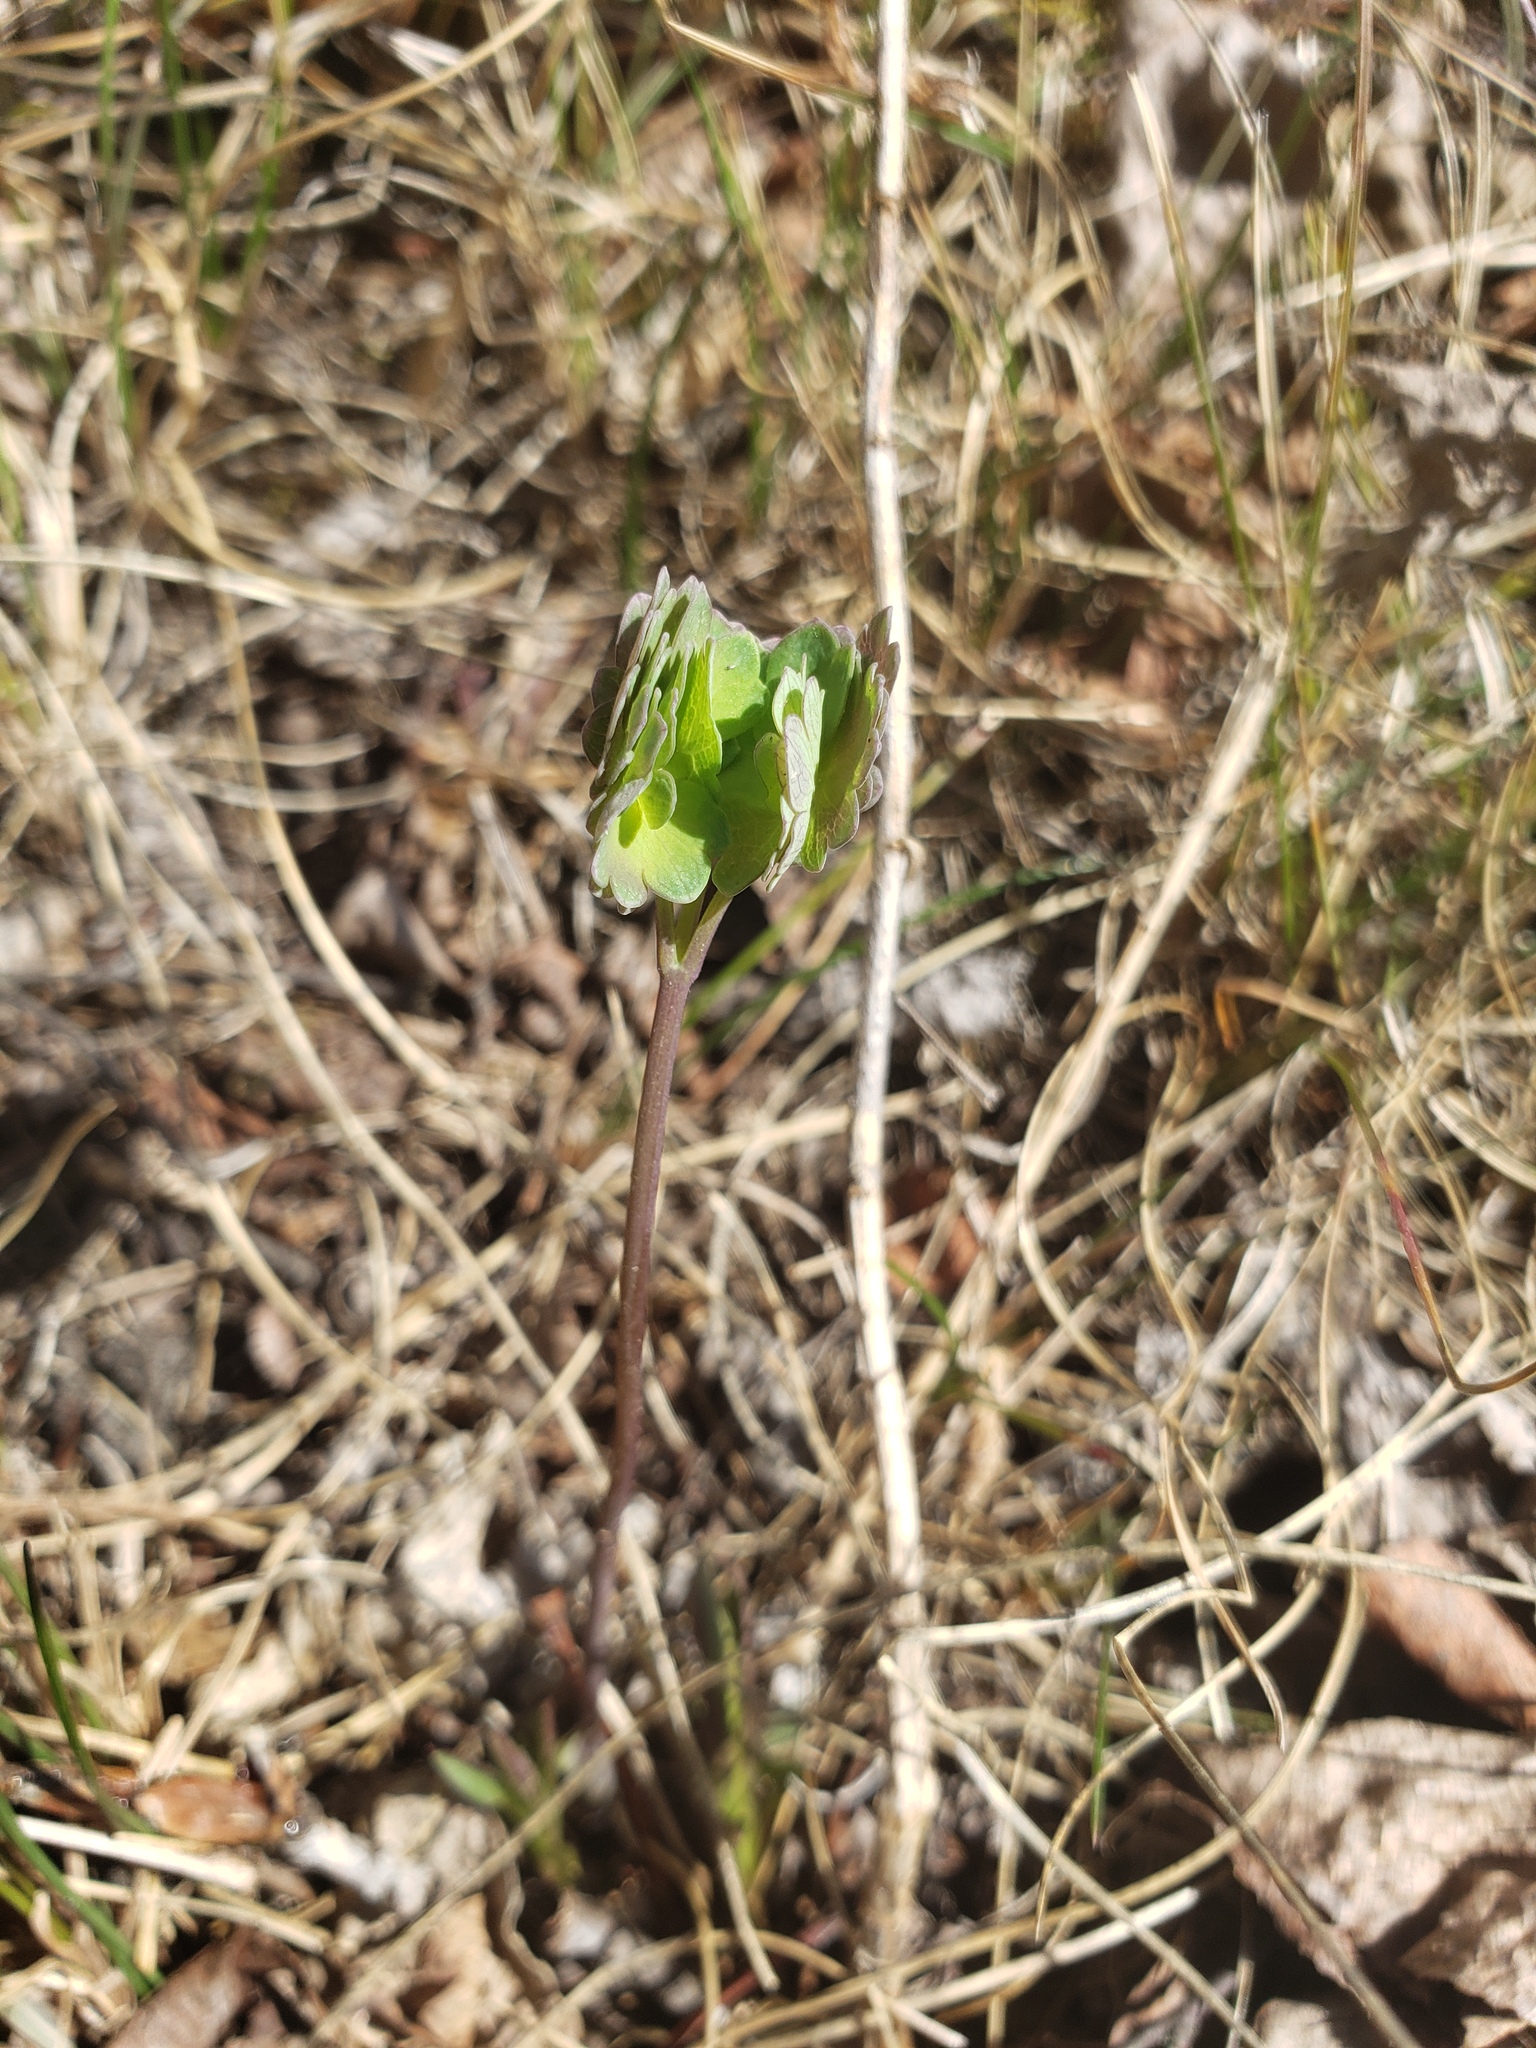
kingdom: Plantae
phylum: Tracheophyta
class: Magnoliopsida
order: Ranunculales
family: Ranunculaceae
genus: Thalictrum
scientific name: Thalictrum venulosum
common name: Early meadow-rue
